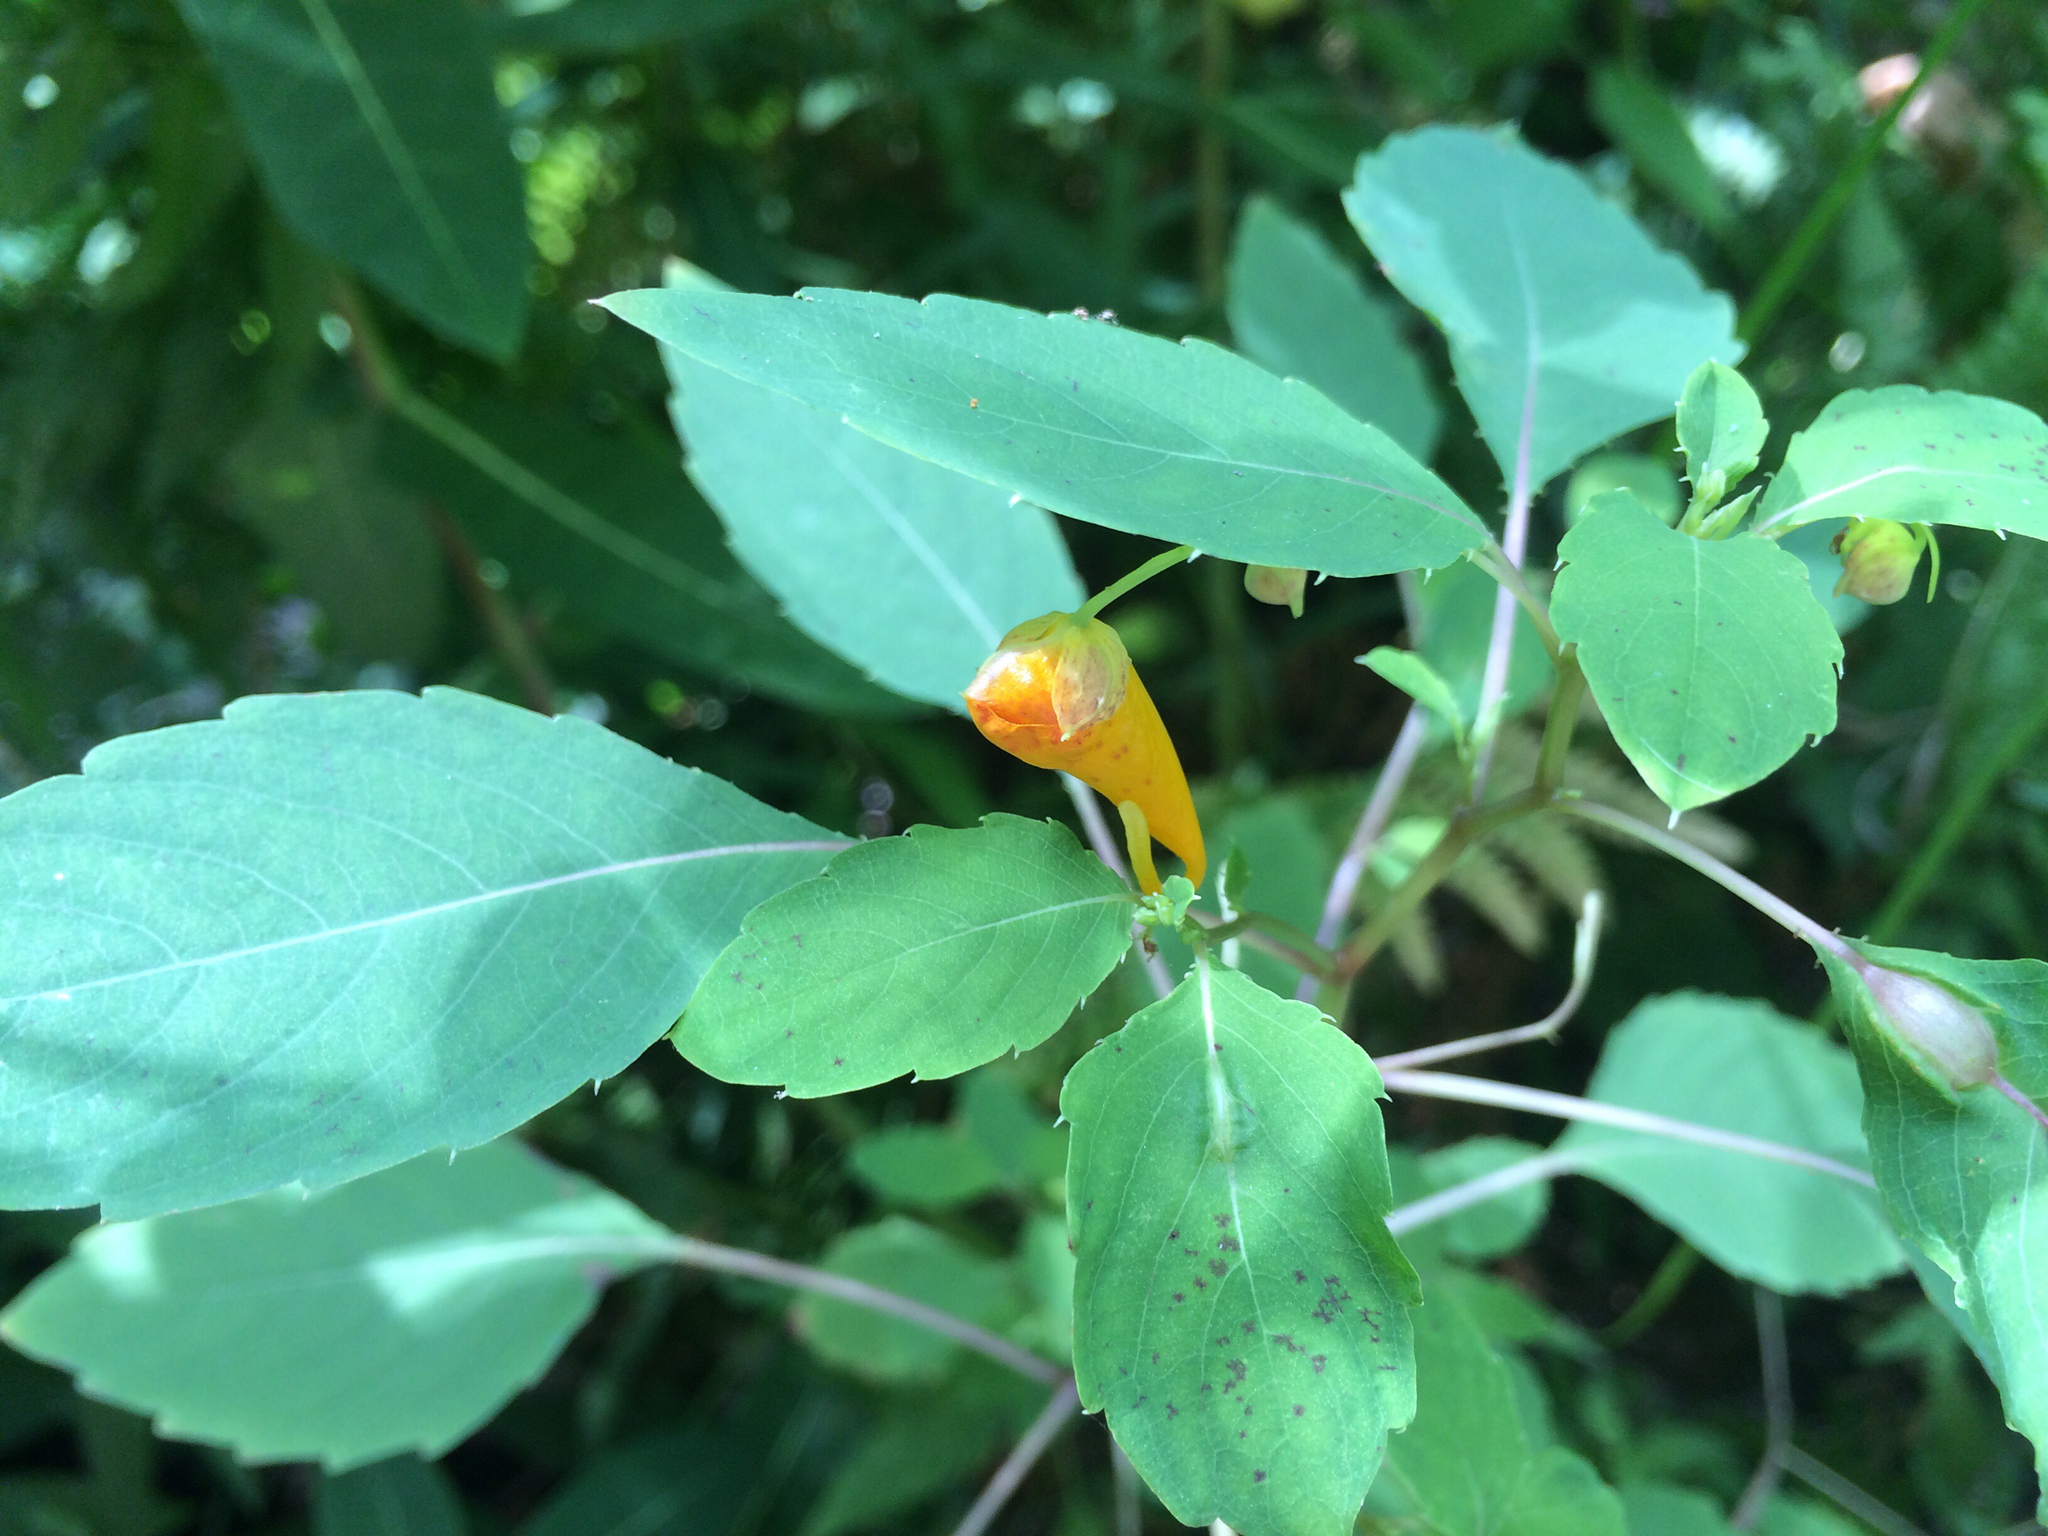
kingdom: Plantae
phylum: Tracheophyta
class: Magnoliopsida
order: Ericales
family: Balsaminaceae
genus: Impatiens
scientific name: Impatiens capensis
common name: Orange balsam
